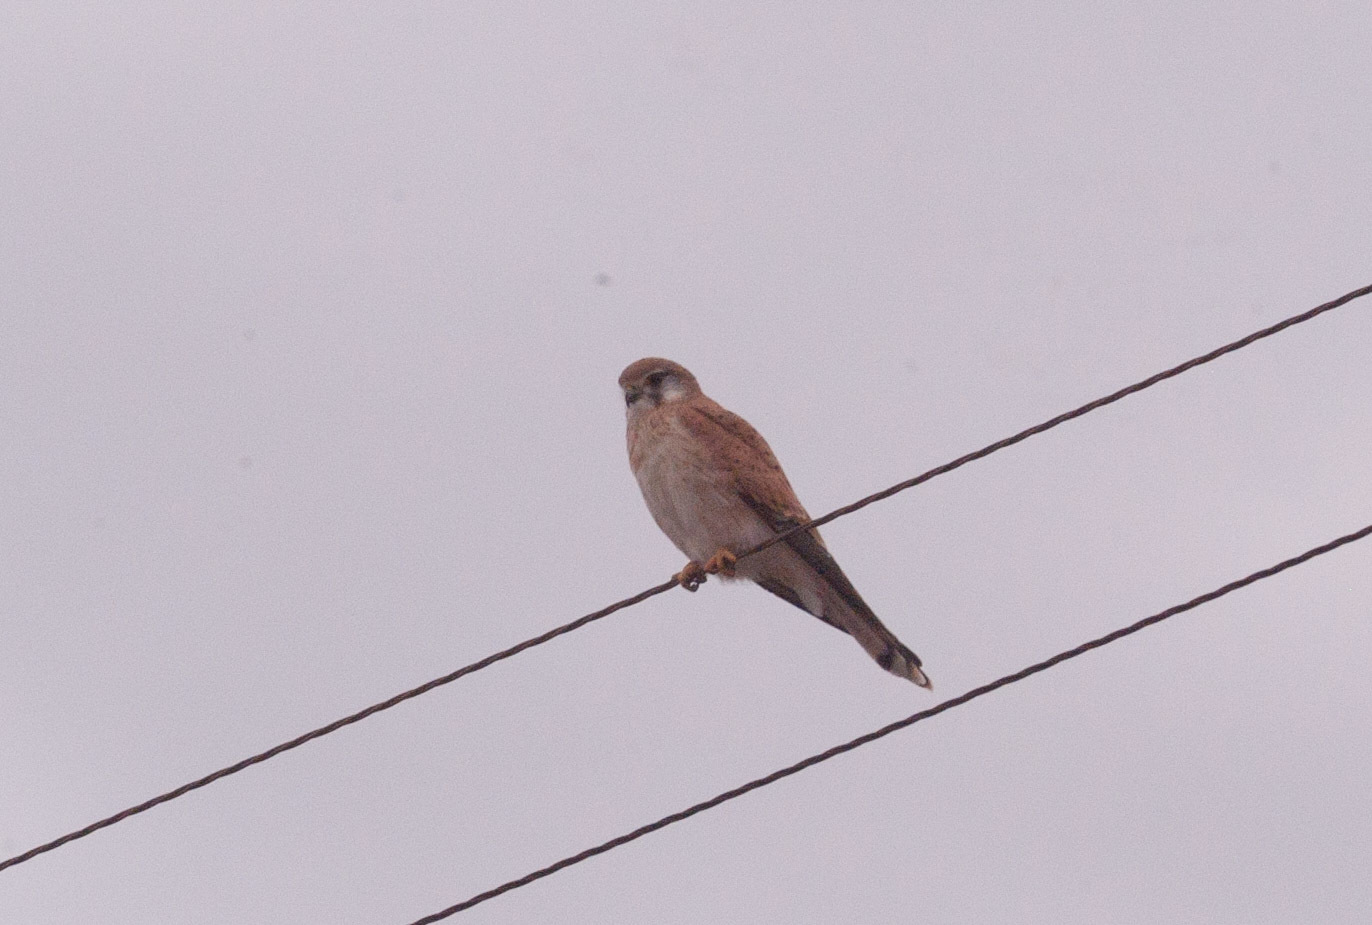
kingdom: Animalia
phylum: Chordata
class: Aves
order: Falconiformes
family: Falconidae
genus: Falco
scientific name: Falco cenchroides
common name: Nankeen kestrel
